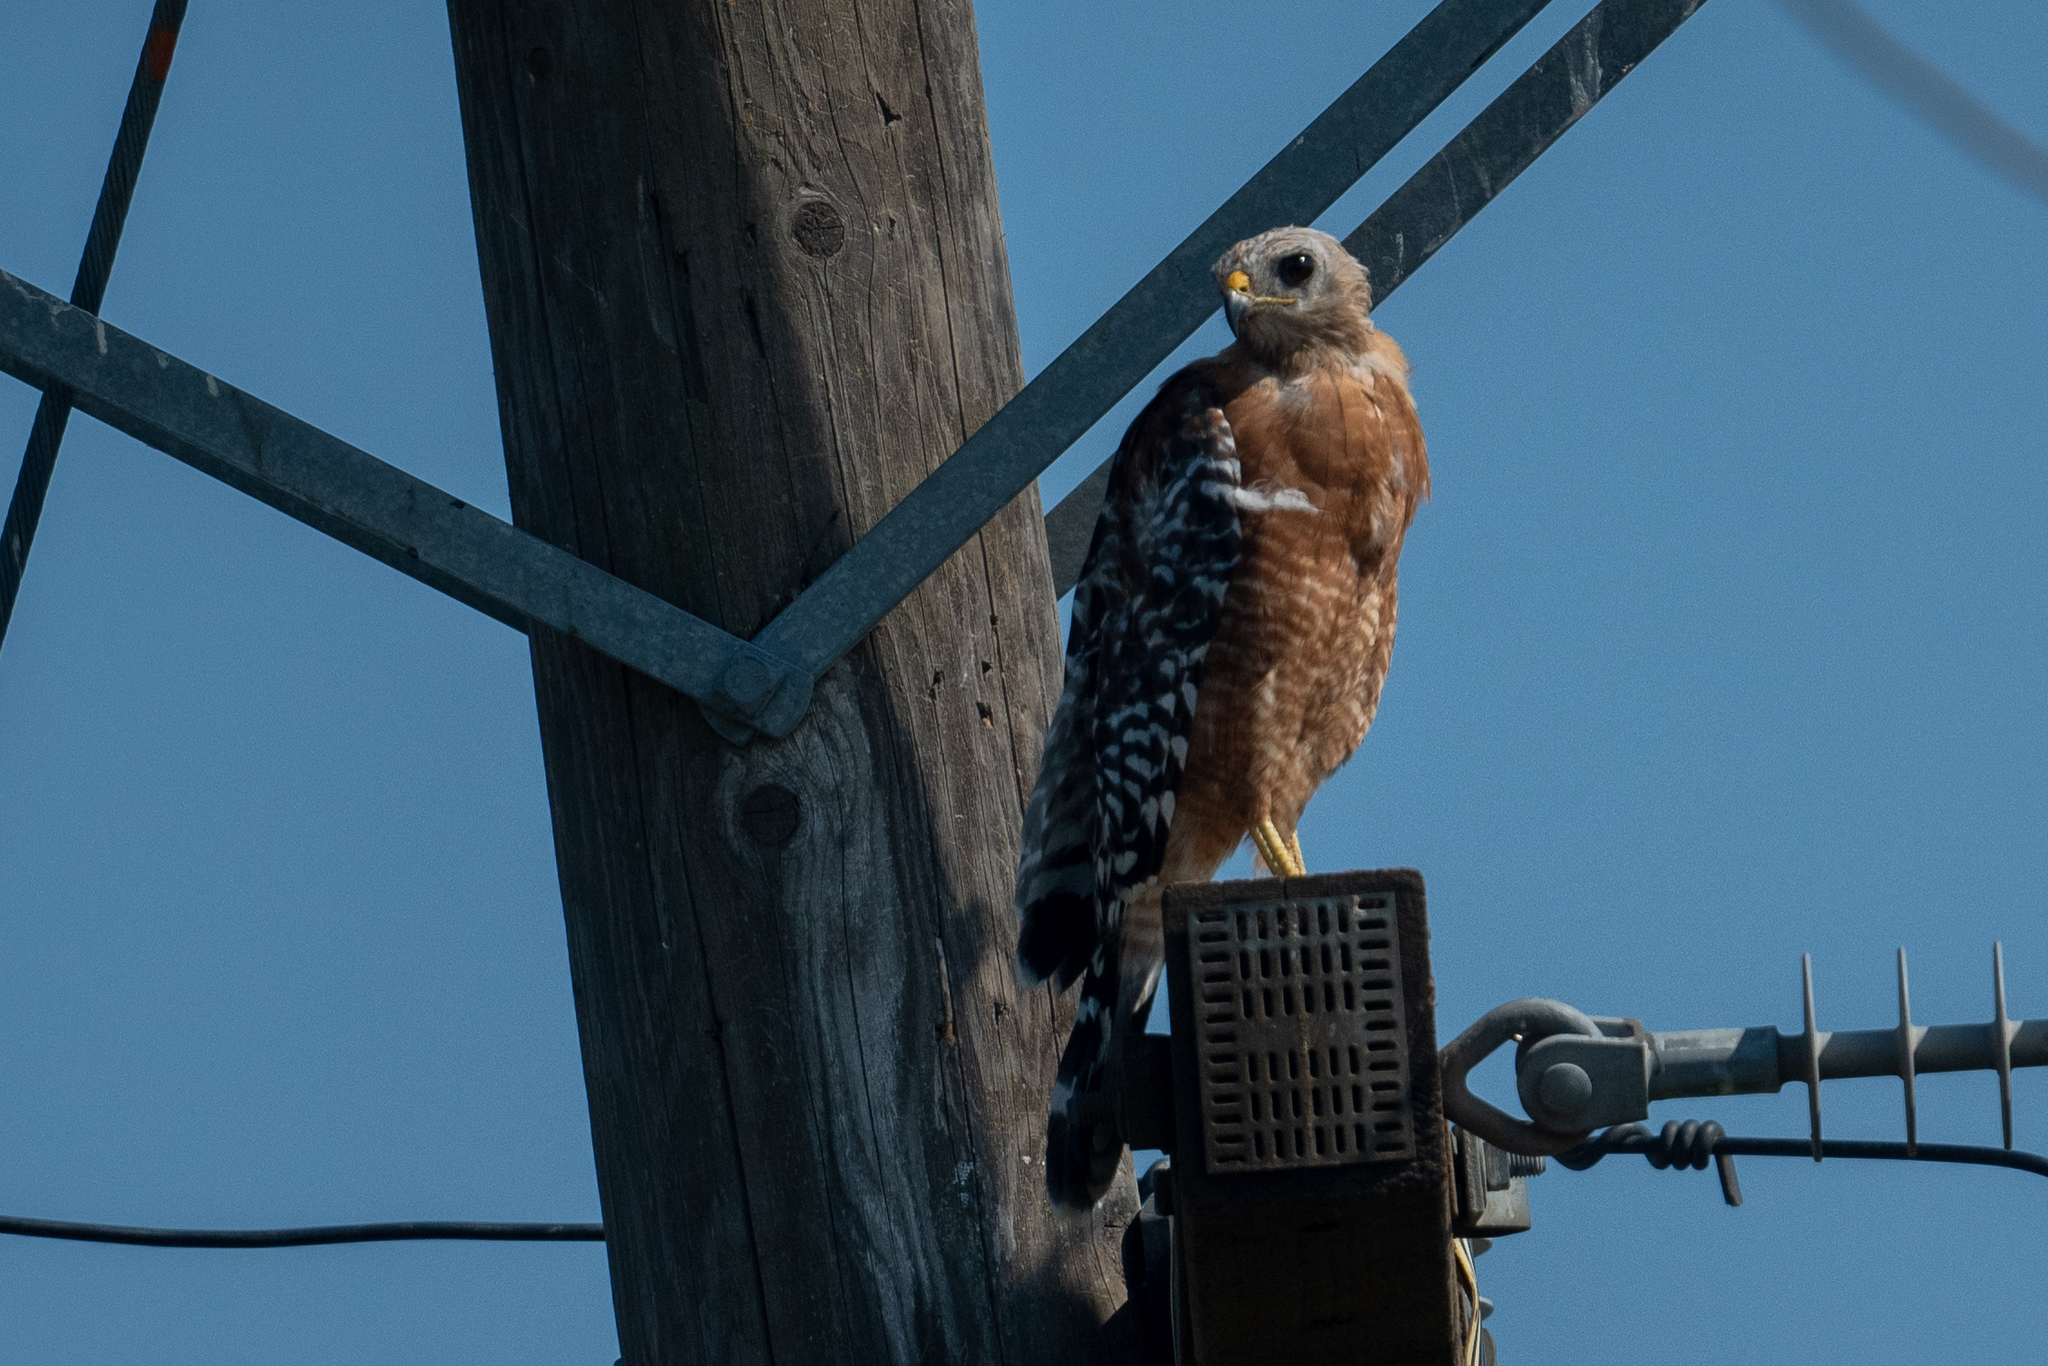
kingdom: Animalia
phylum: Chordata
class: Aves
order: Accipitriformes
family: Accipitridae
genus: Buteo
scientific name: Buteo lineatus
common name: Red-shouldered hawk
